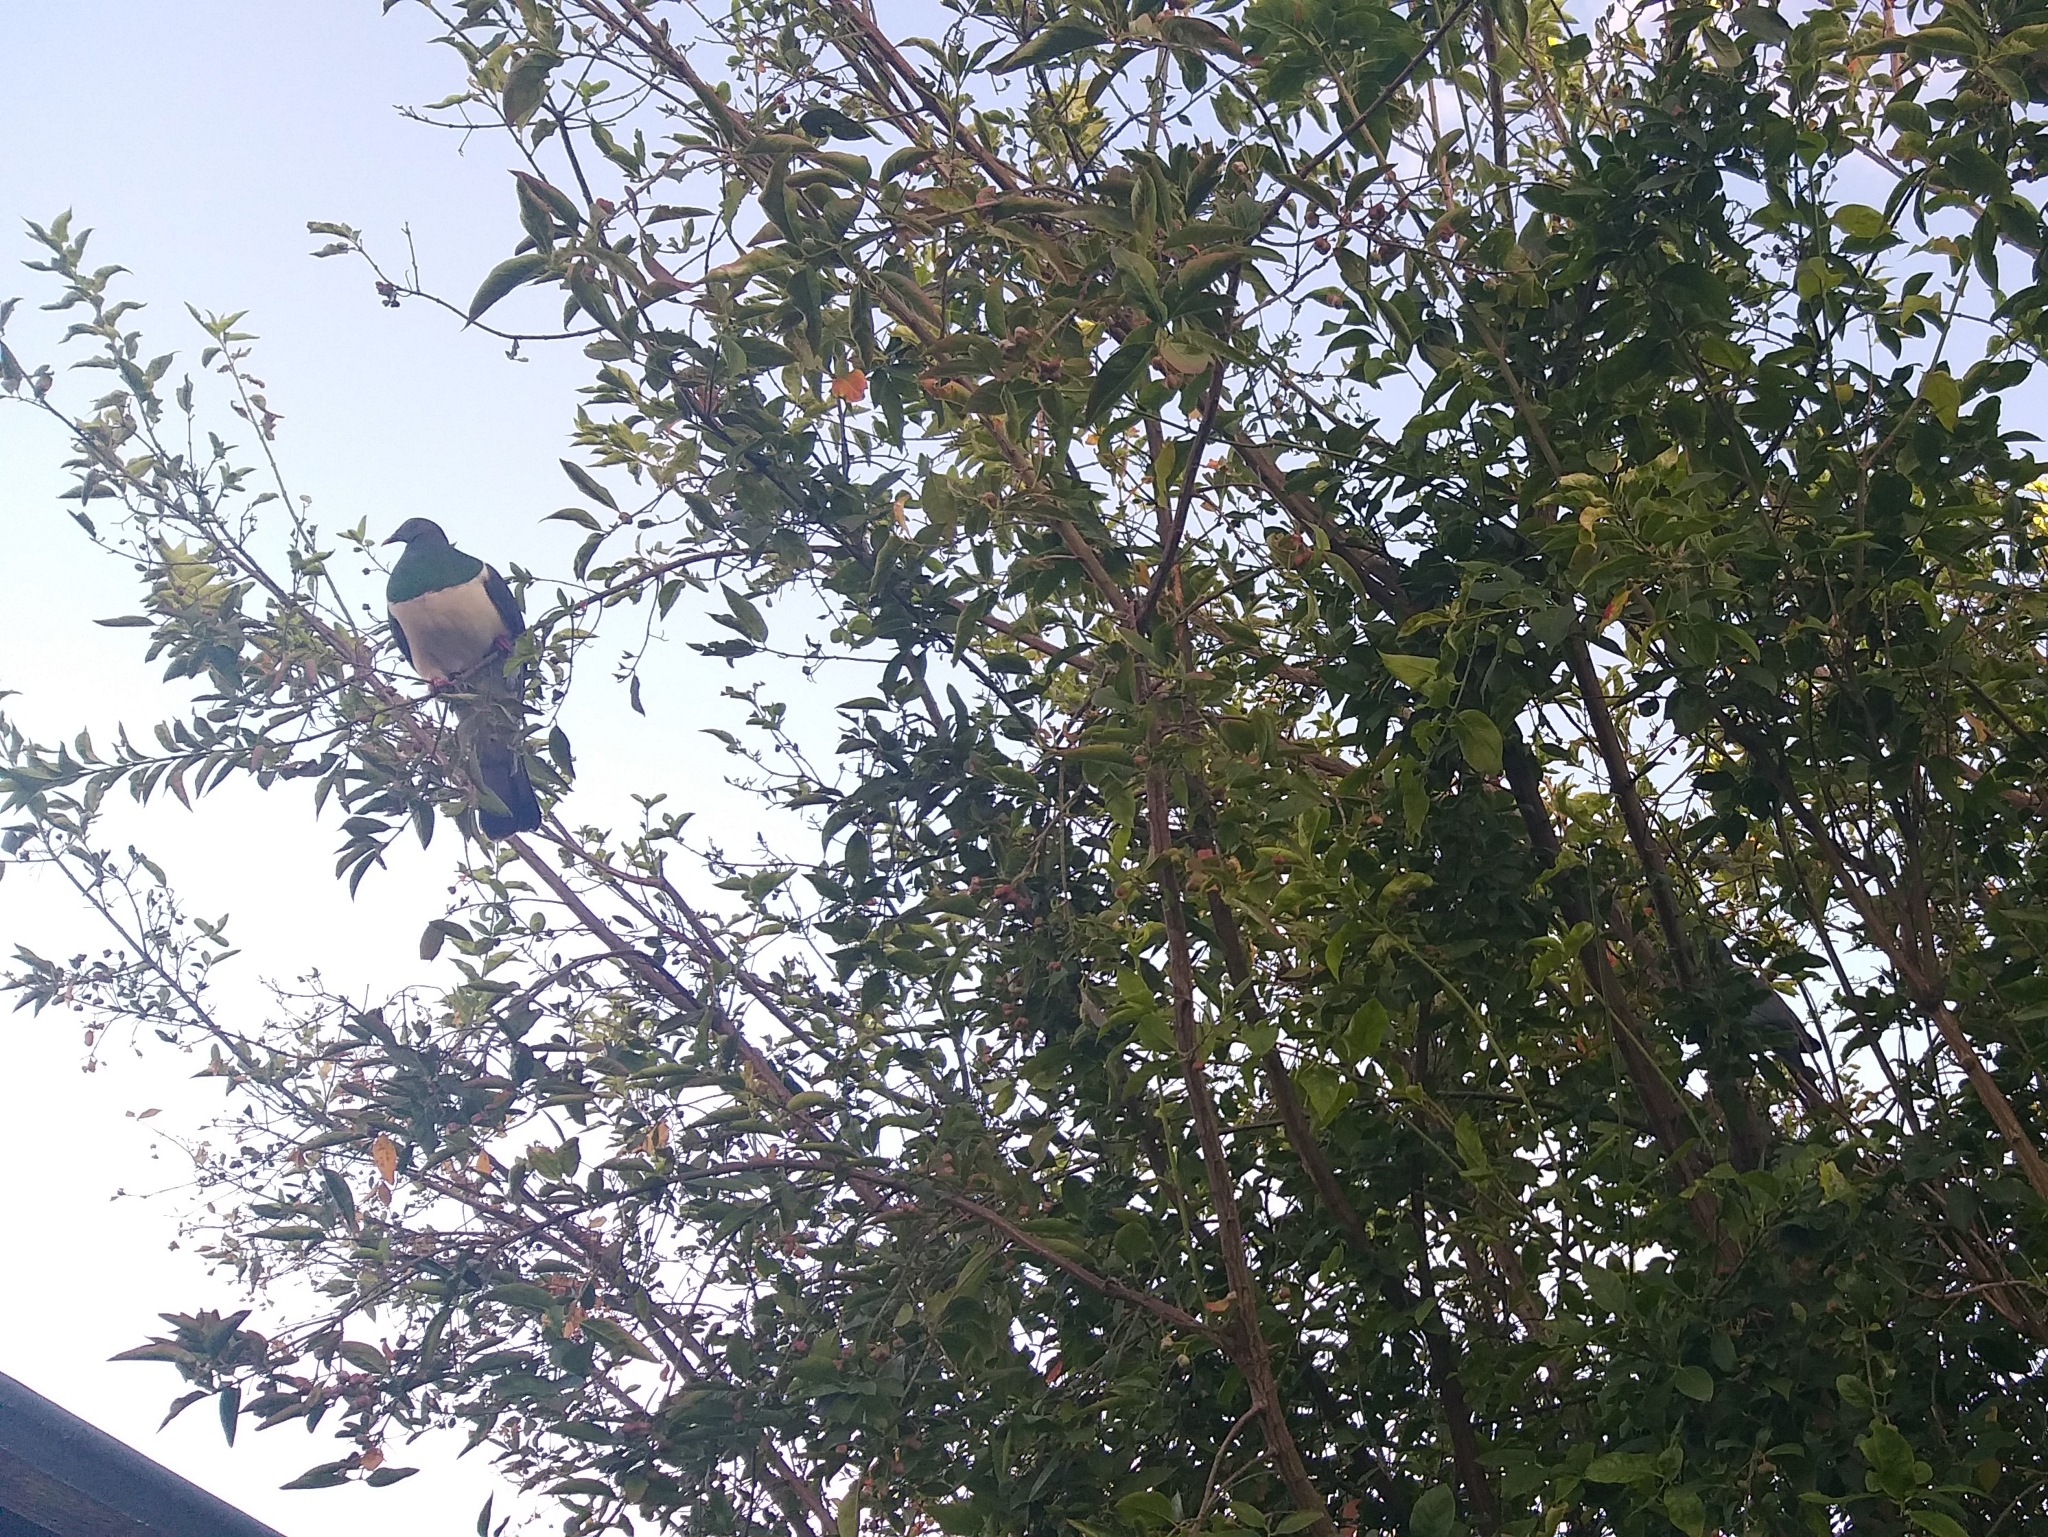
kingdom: Animalia
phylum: Chordata
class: Aves
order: Columbiformes
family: Columbidae
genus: Hemiphaga
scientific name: Hemiphaga novaeseelandiae
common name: New zealand pigeon
